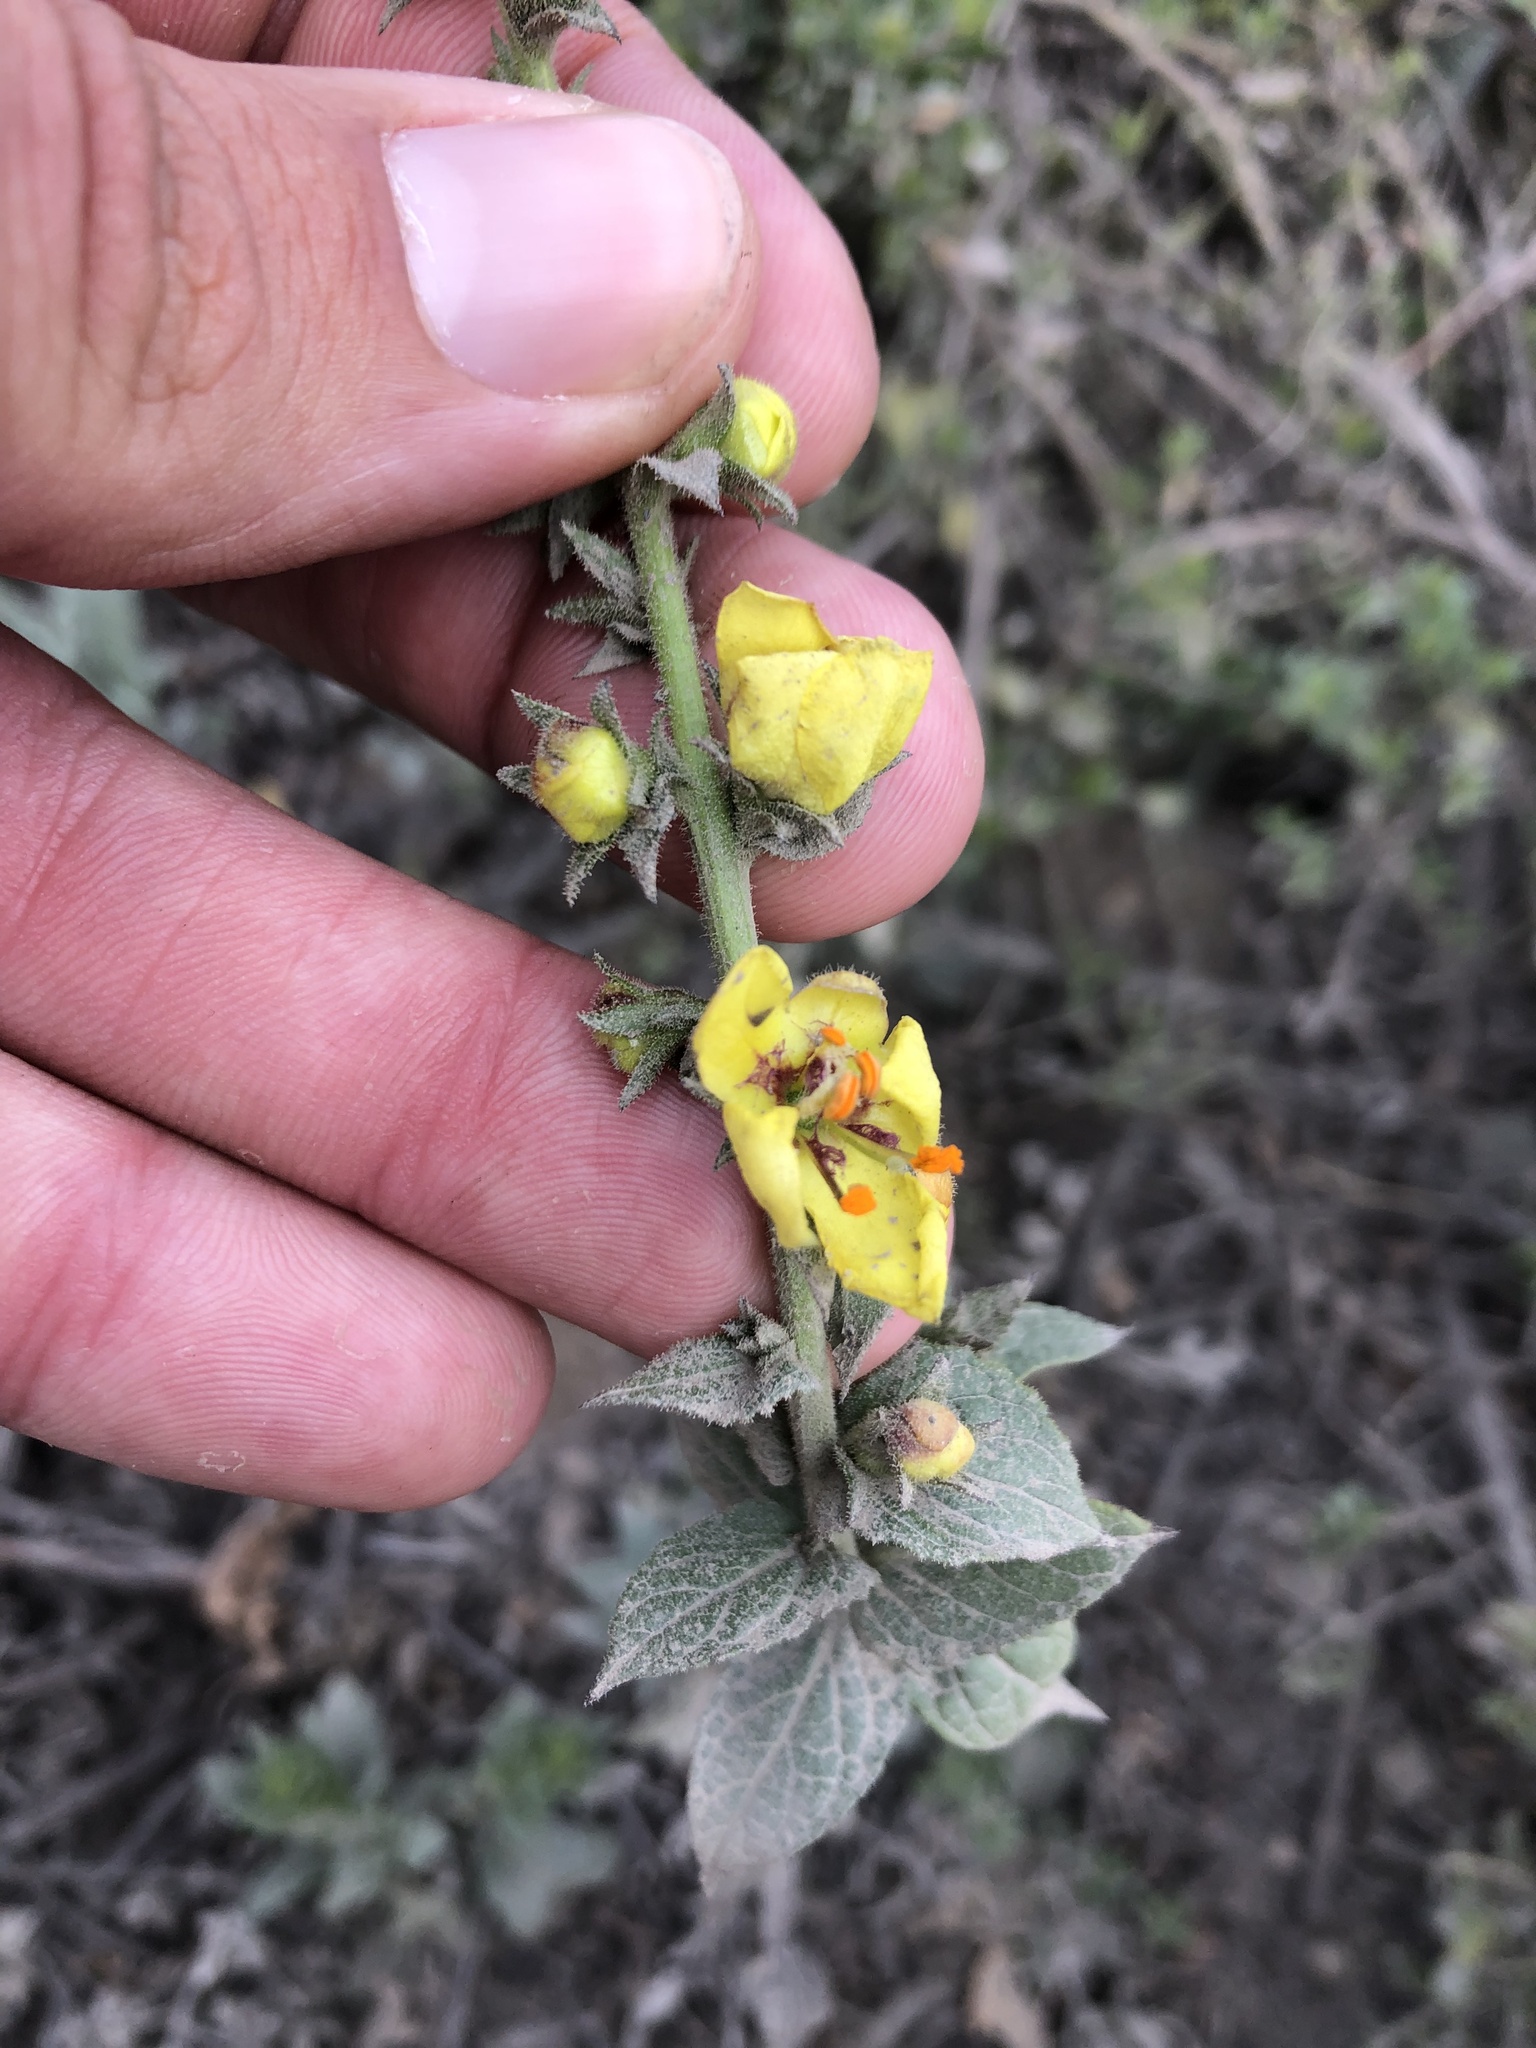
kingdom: Plantae
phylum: Tracheophyta
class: Magnoliopsida
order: Lamiales
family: Scrophulariaceae
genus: Verbascum
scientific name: Verbascum virgatum
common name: Twiggy mullein
